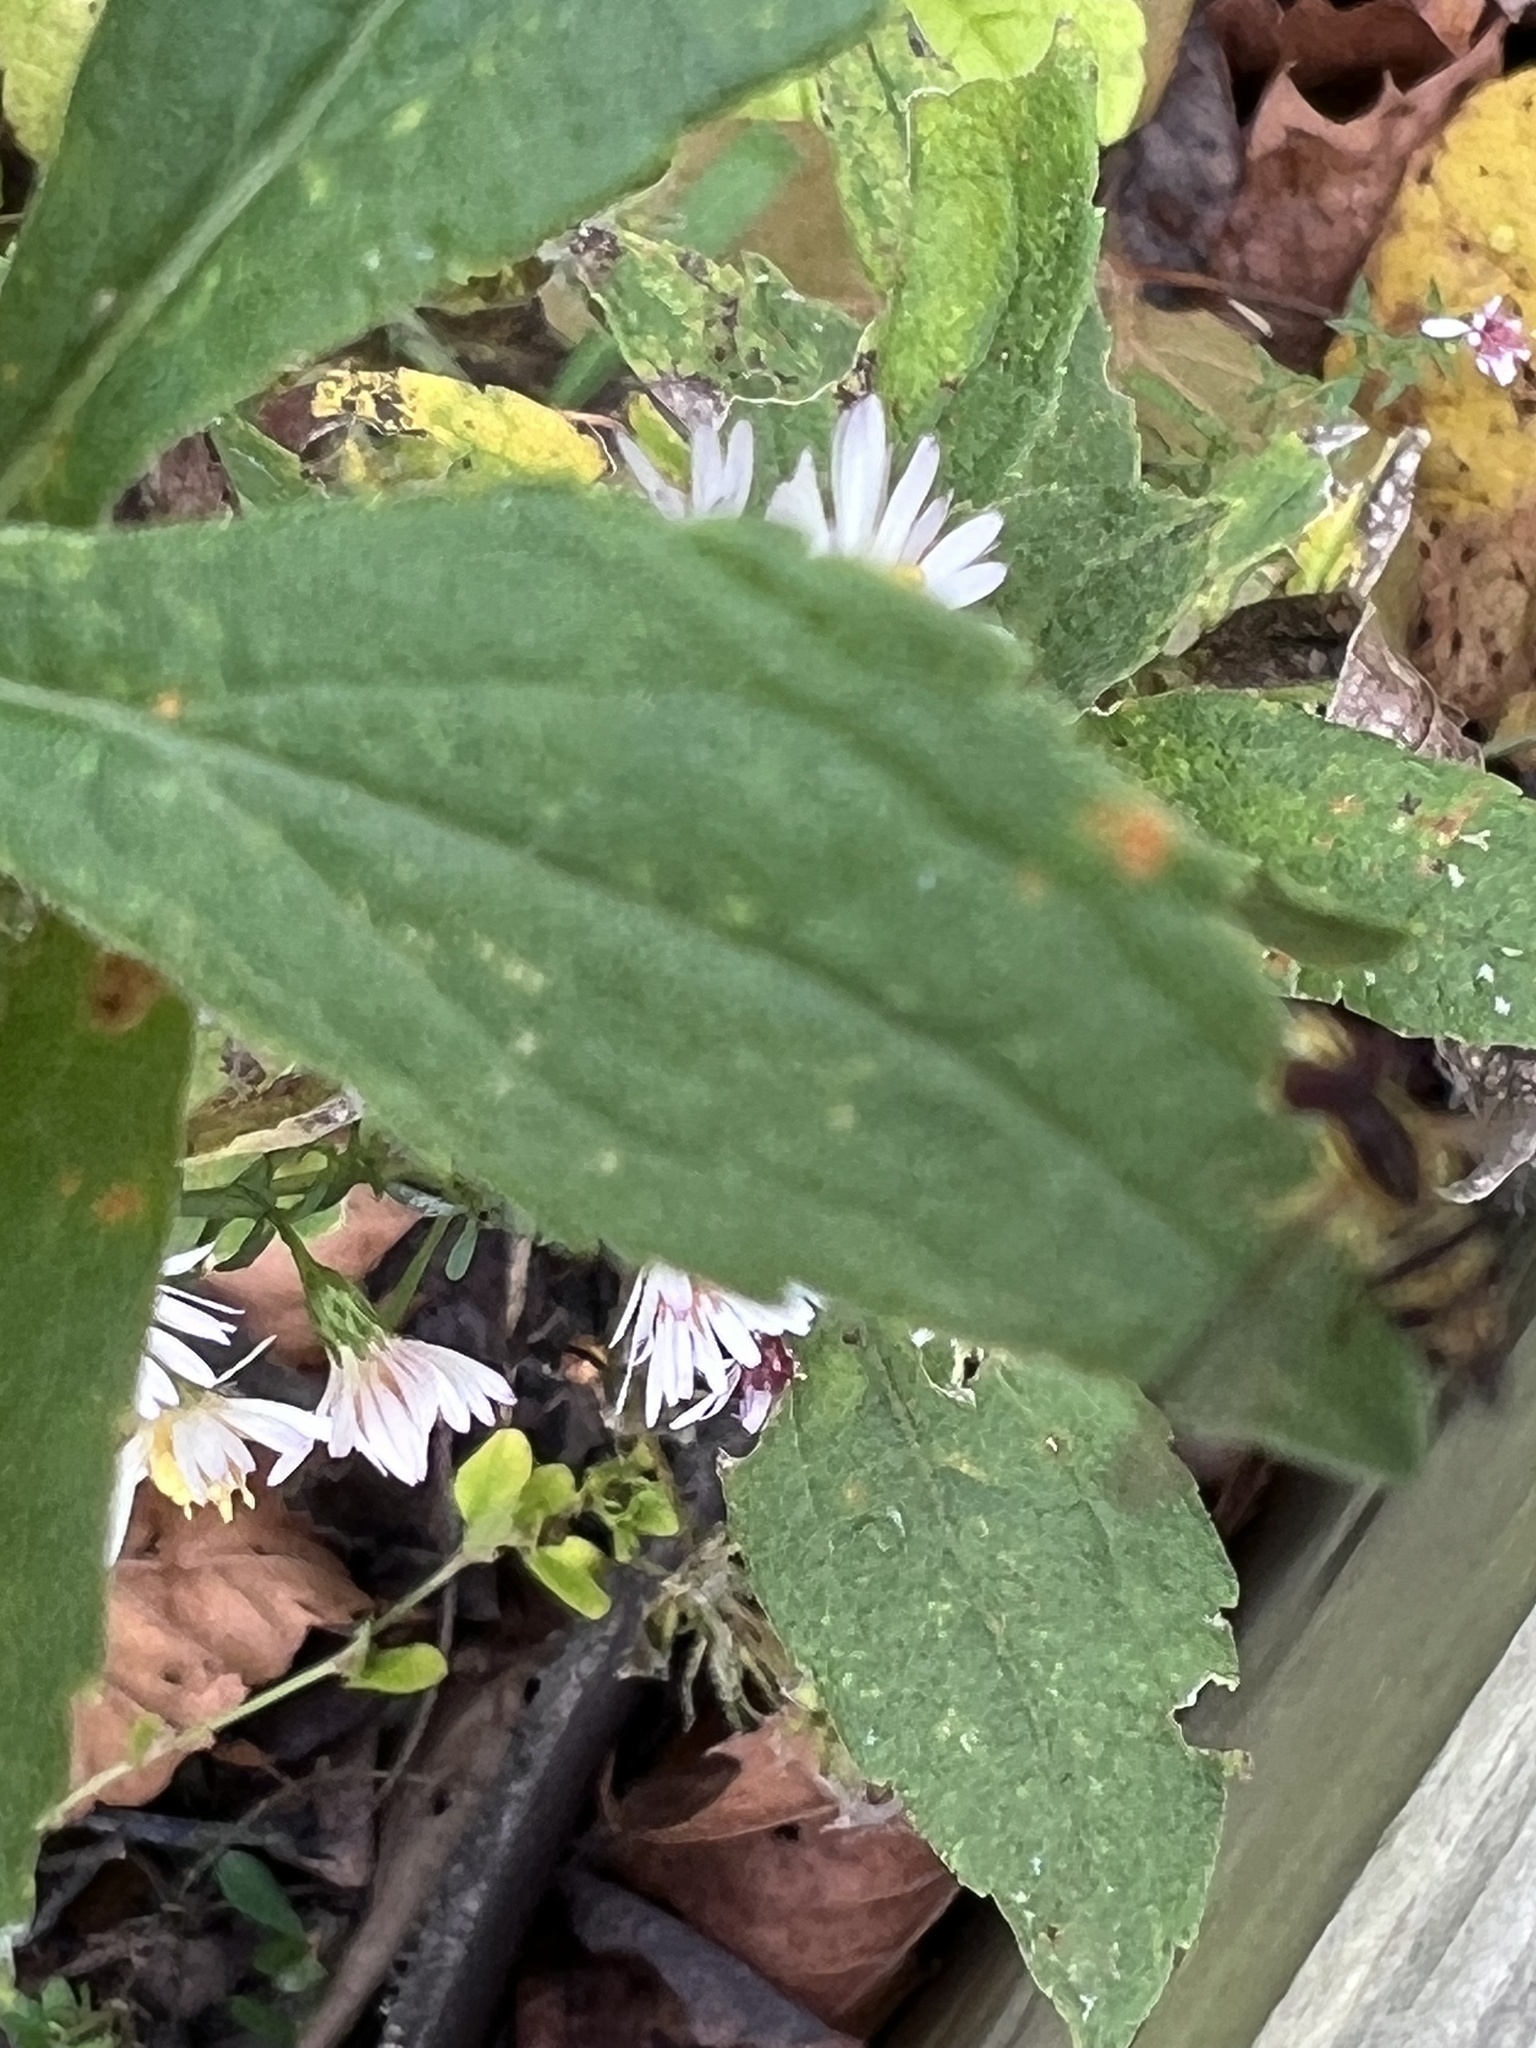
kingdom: Animalia
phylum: Arthropoda
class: Insecta
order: Diptera
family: Syrphidae
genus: Toxomerus
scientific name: Toxomerus geminatus
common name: Eastern calligrapher
